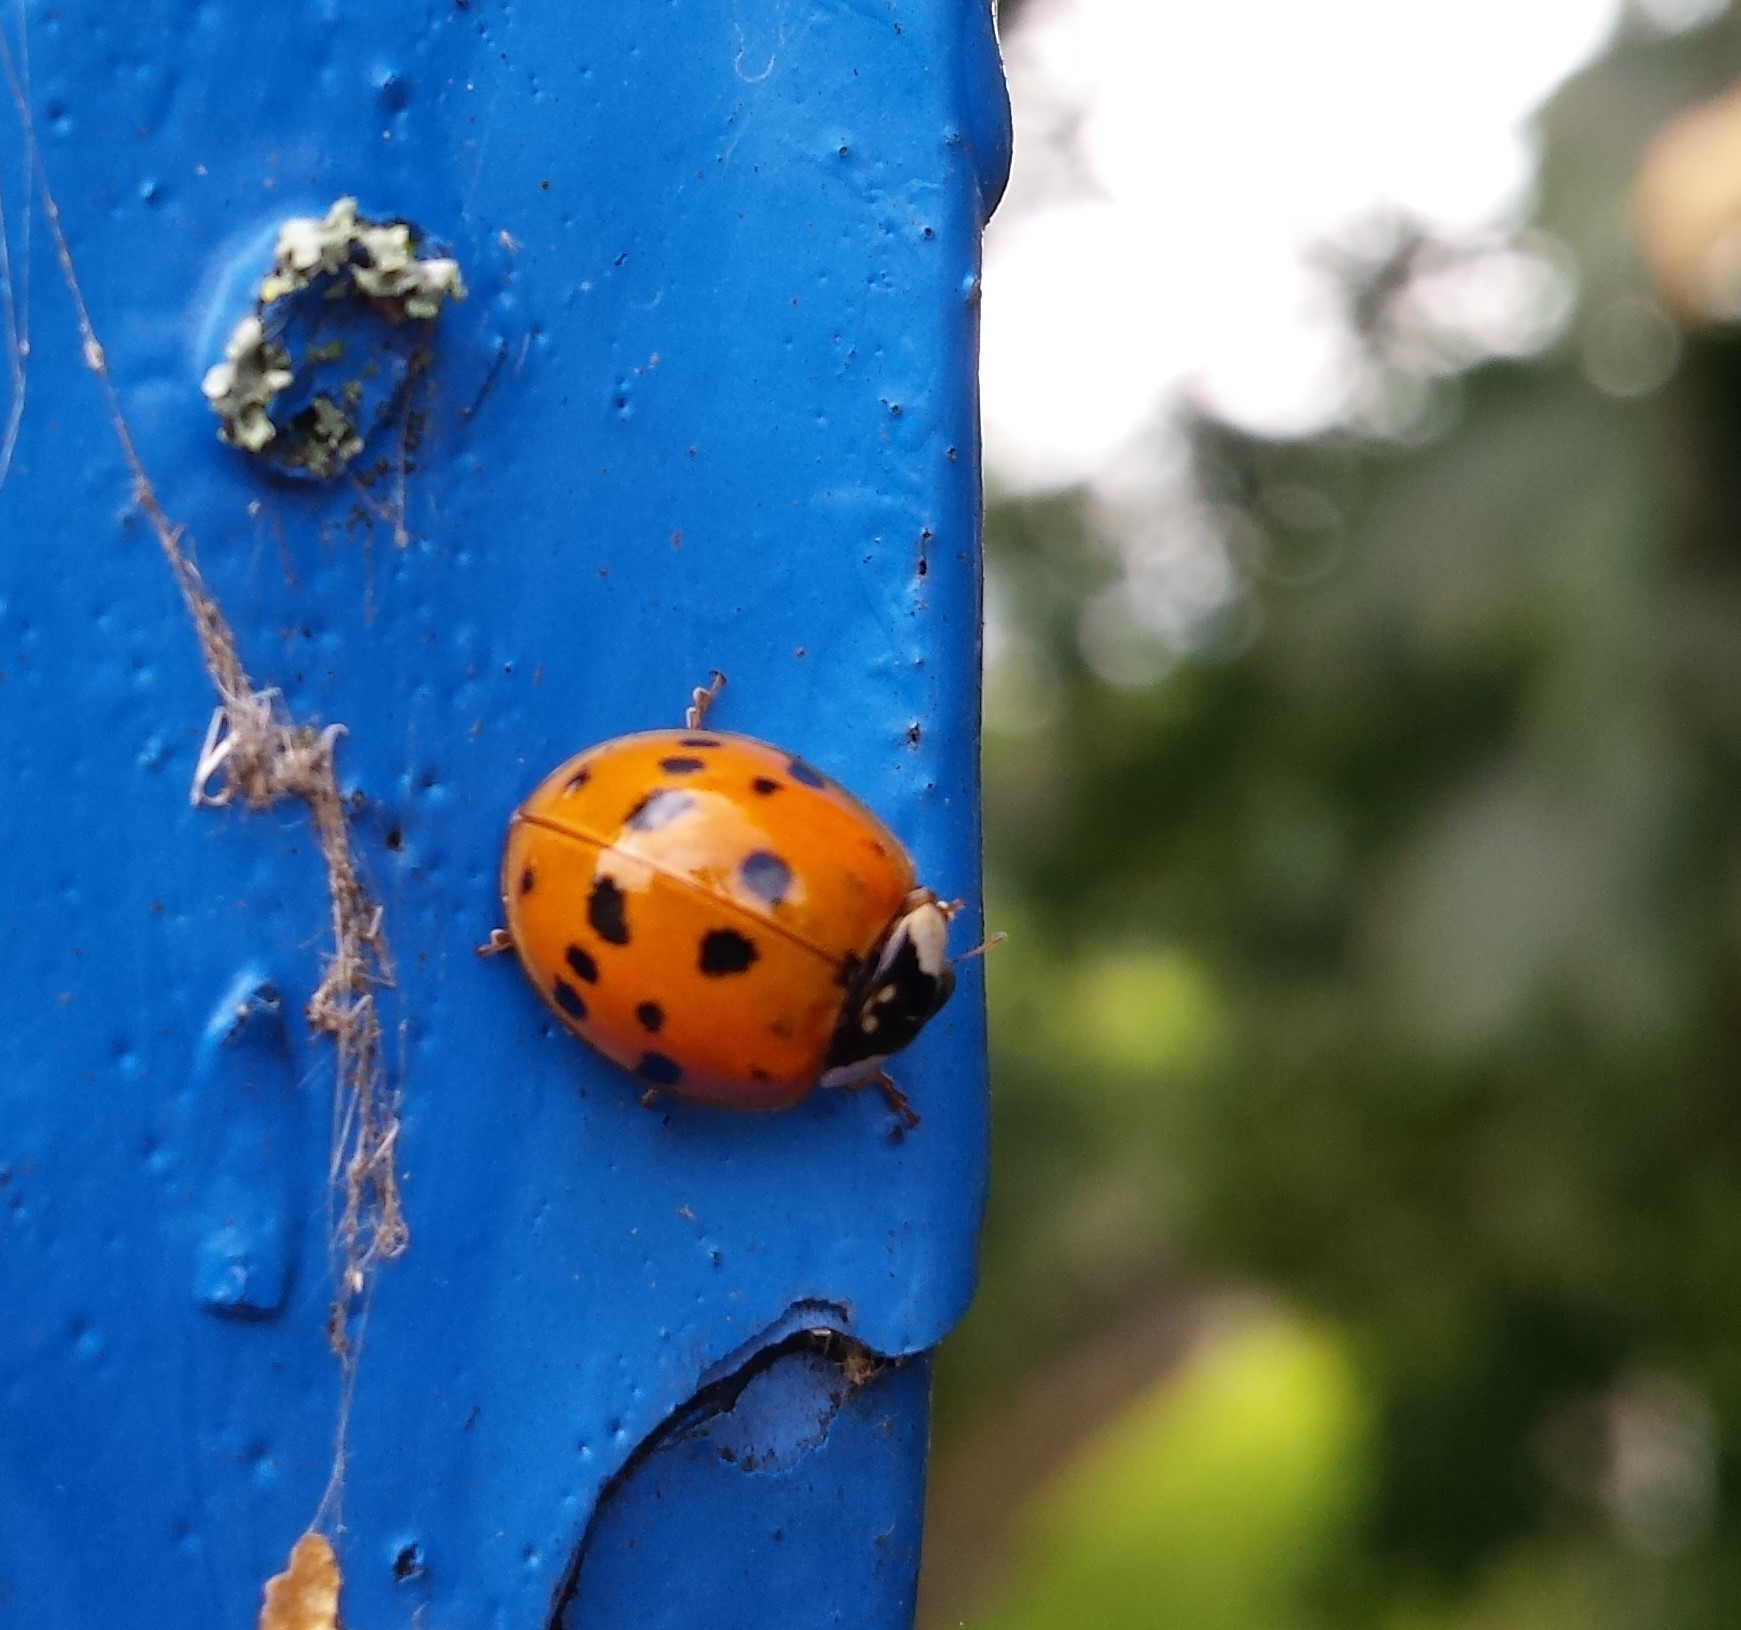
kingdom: Animalia
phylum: Arthropoda
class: Insecta
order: Coleoptera
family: Coccinellidae
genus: Harmonia
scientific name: Harmonia axyridis
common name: Harlequin ladybird
